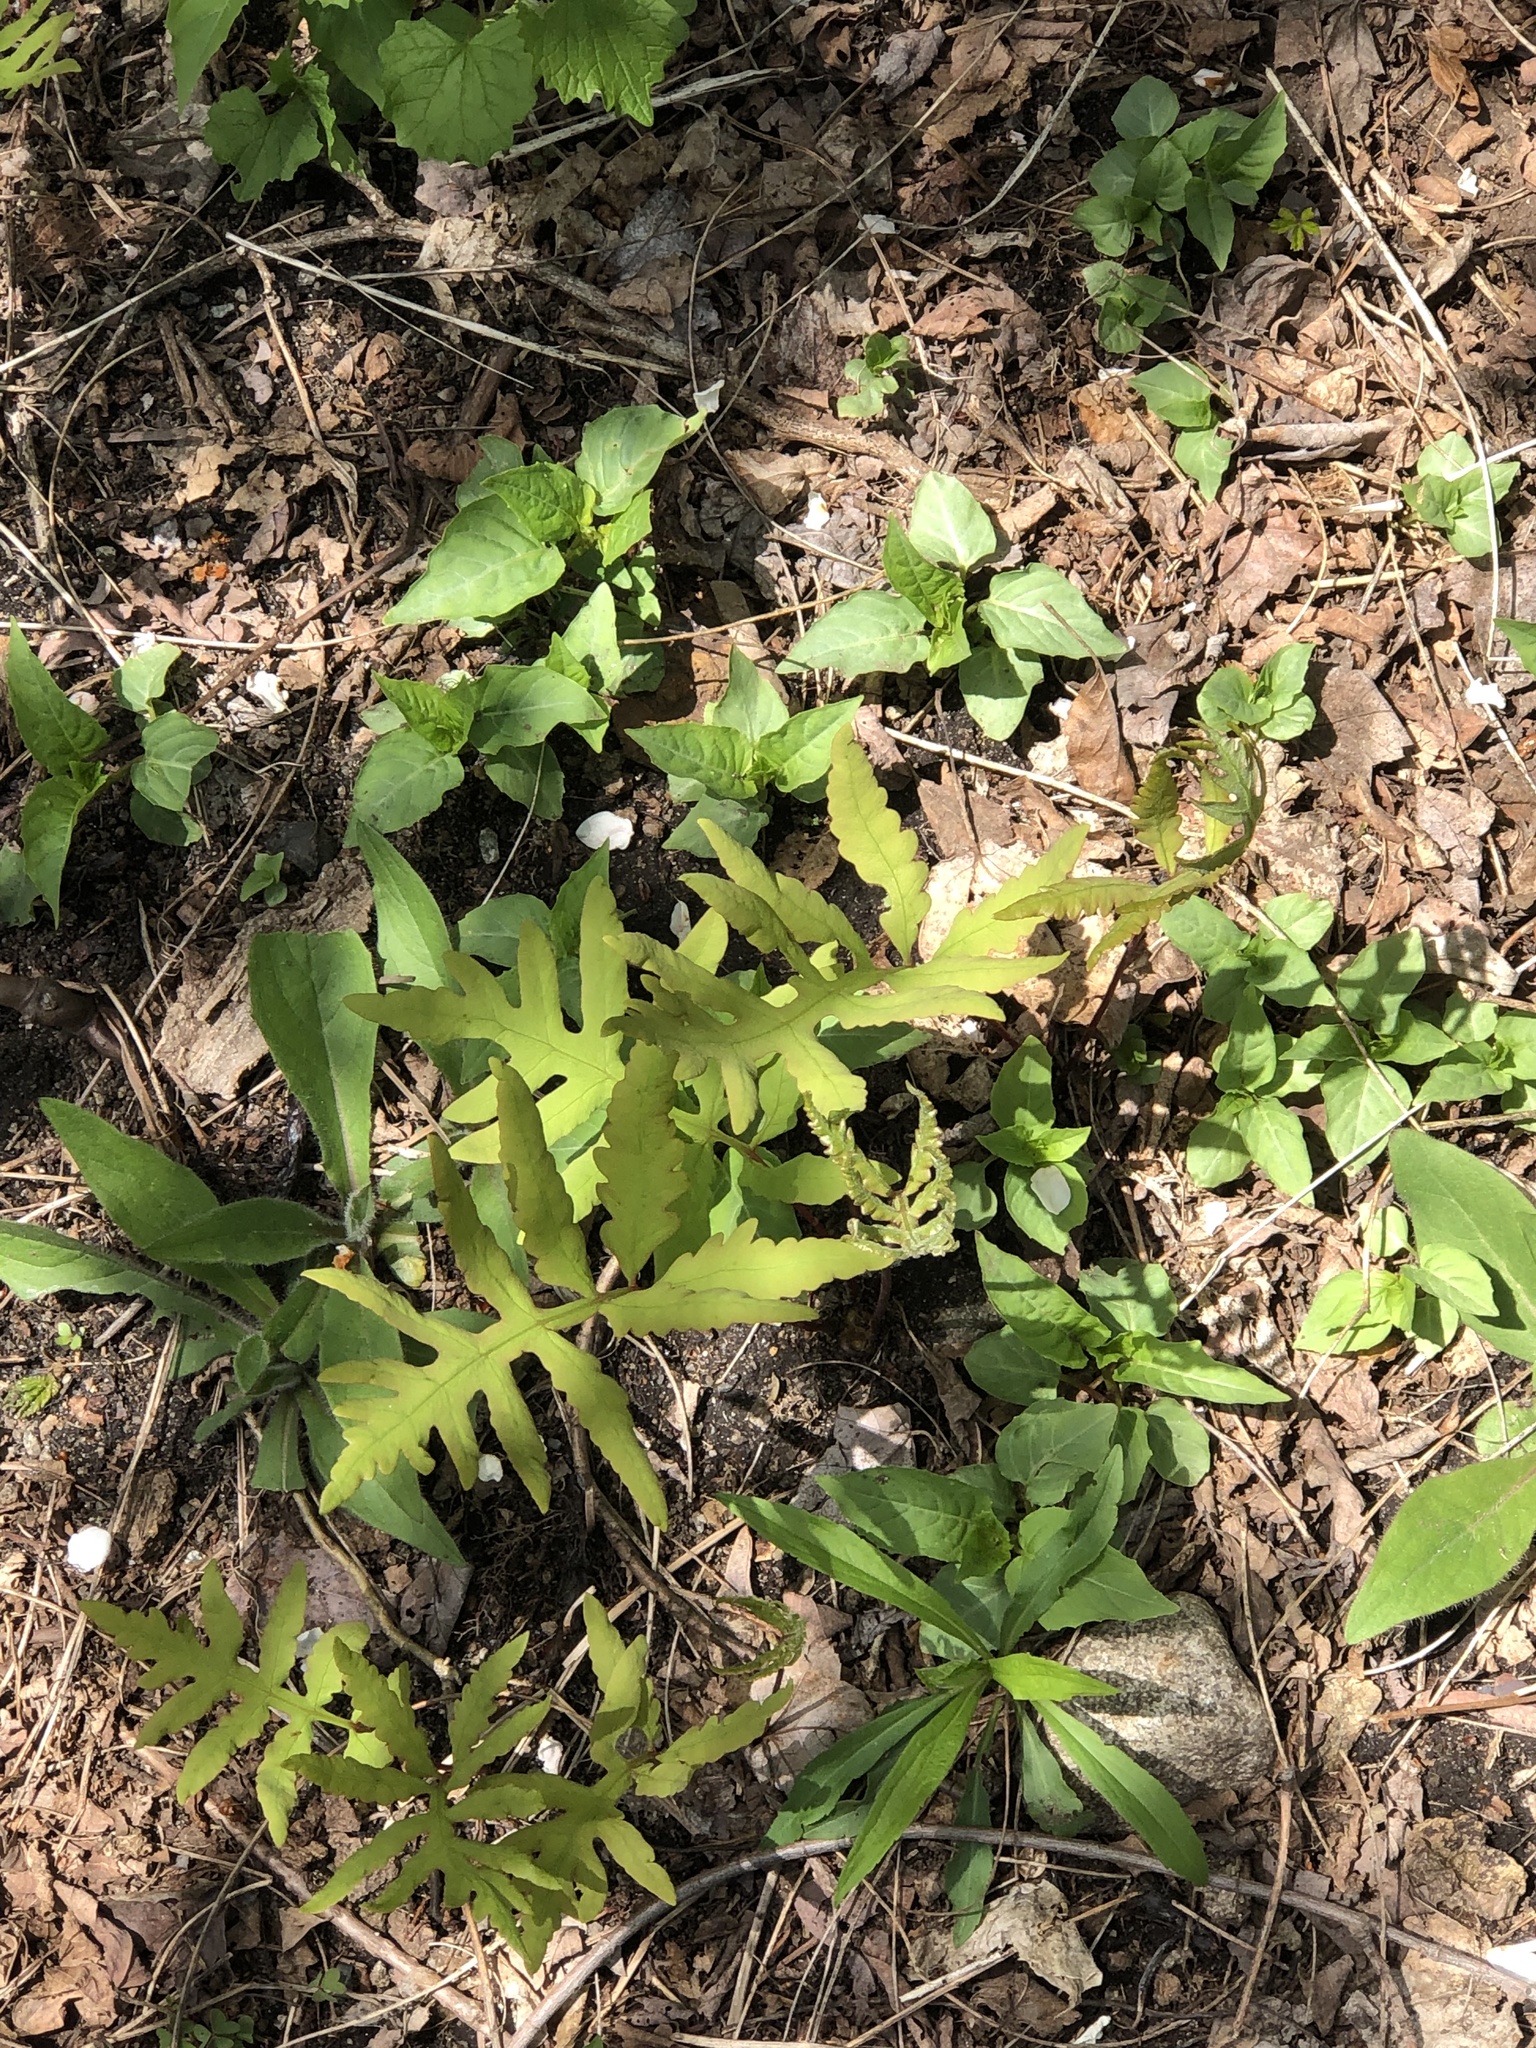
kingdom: Plantae
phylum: Tracheophyta
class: Polypodiopsida
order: Polypodiales
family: Onocleaceae
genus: Onoclea
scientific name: Onoclea sensibilis
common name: Sensitive fern
